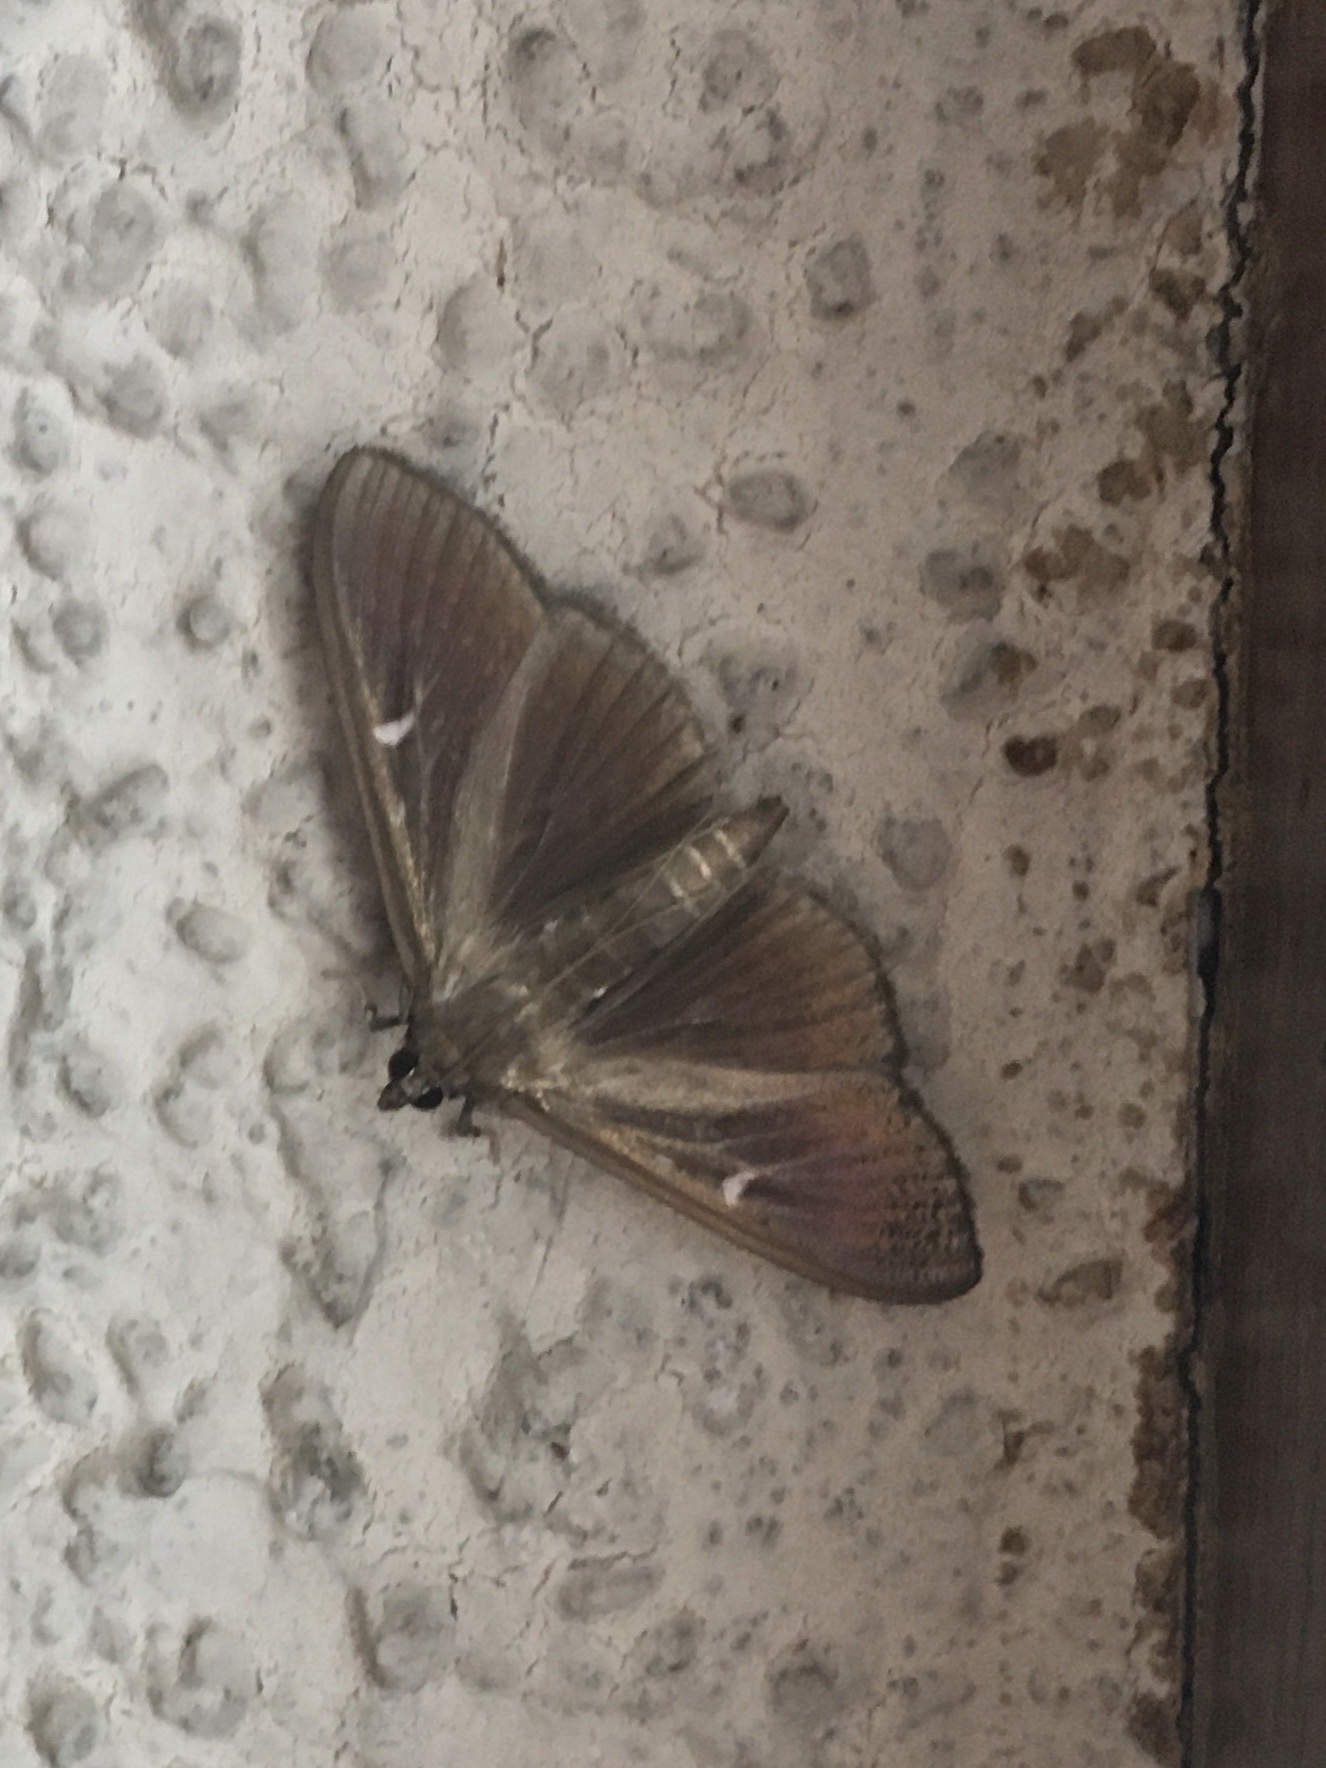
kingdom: Animalia
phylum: Arthropoda
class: Insecta
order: Lepidoptera
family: Crambidae
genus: Cydalima
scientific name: Cydalima perspectalis
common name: Box tree moth
